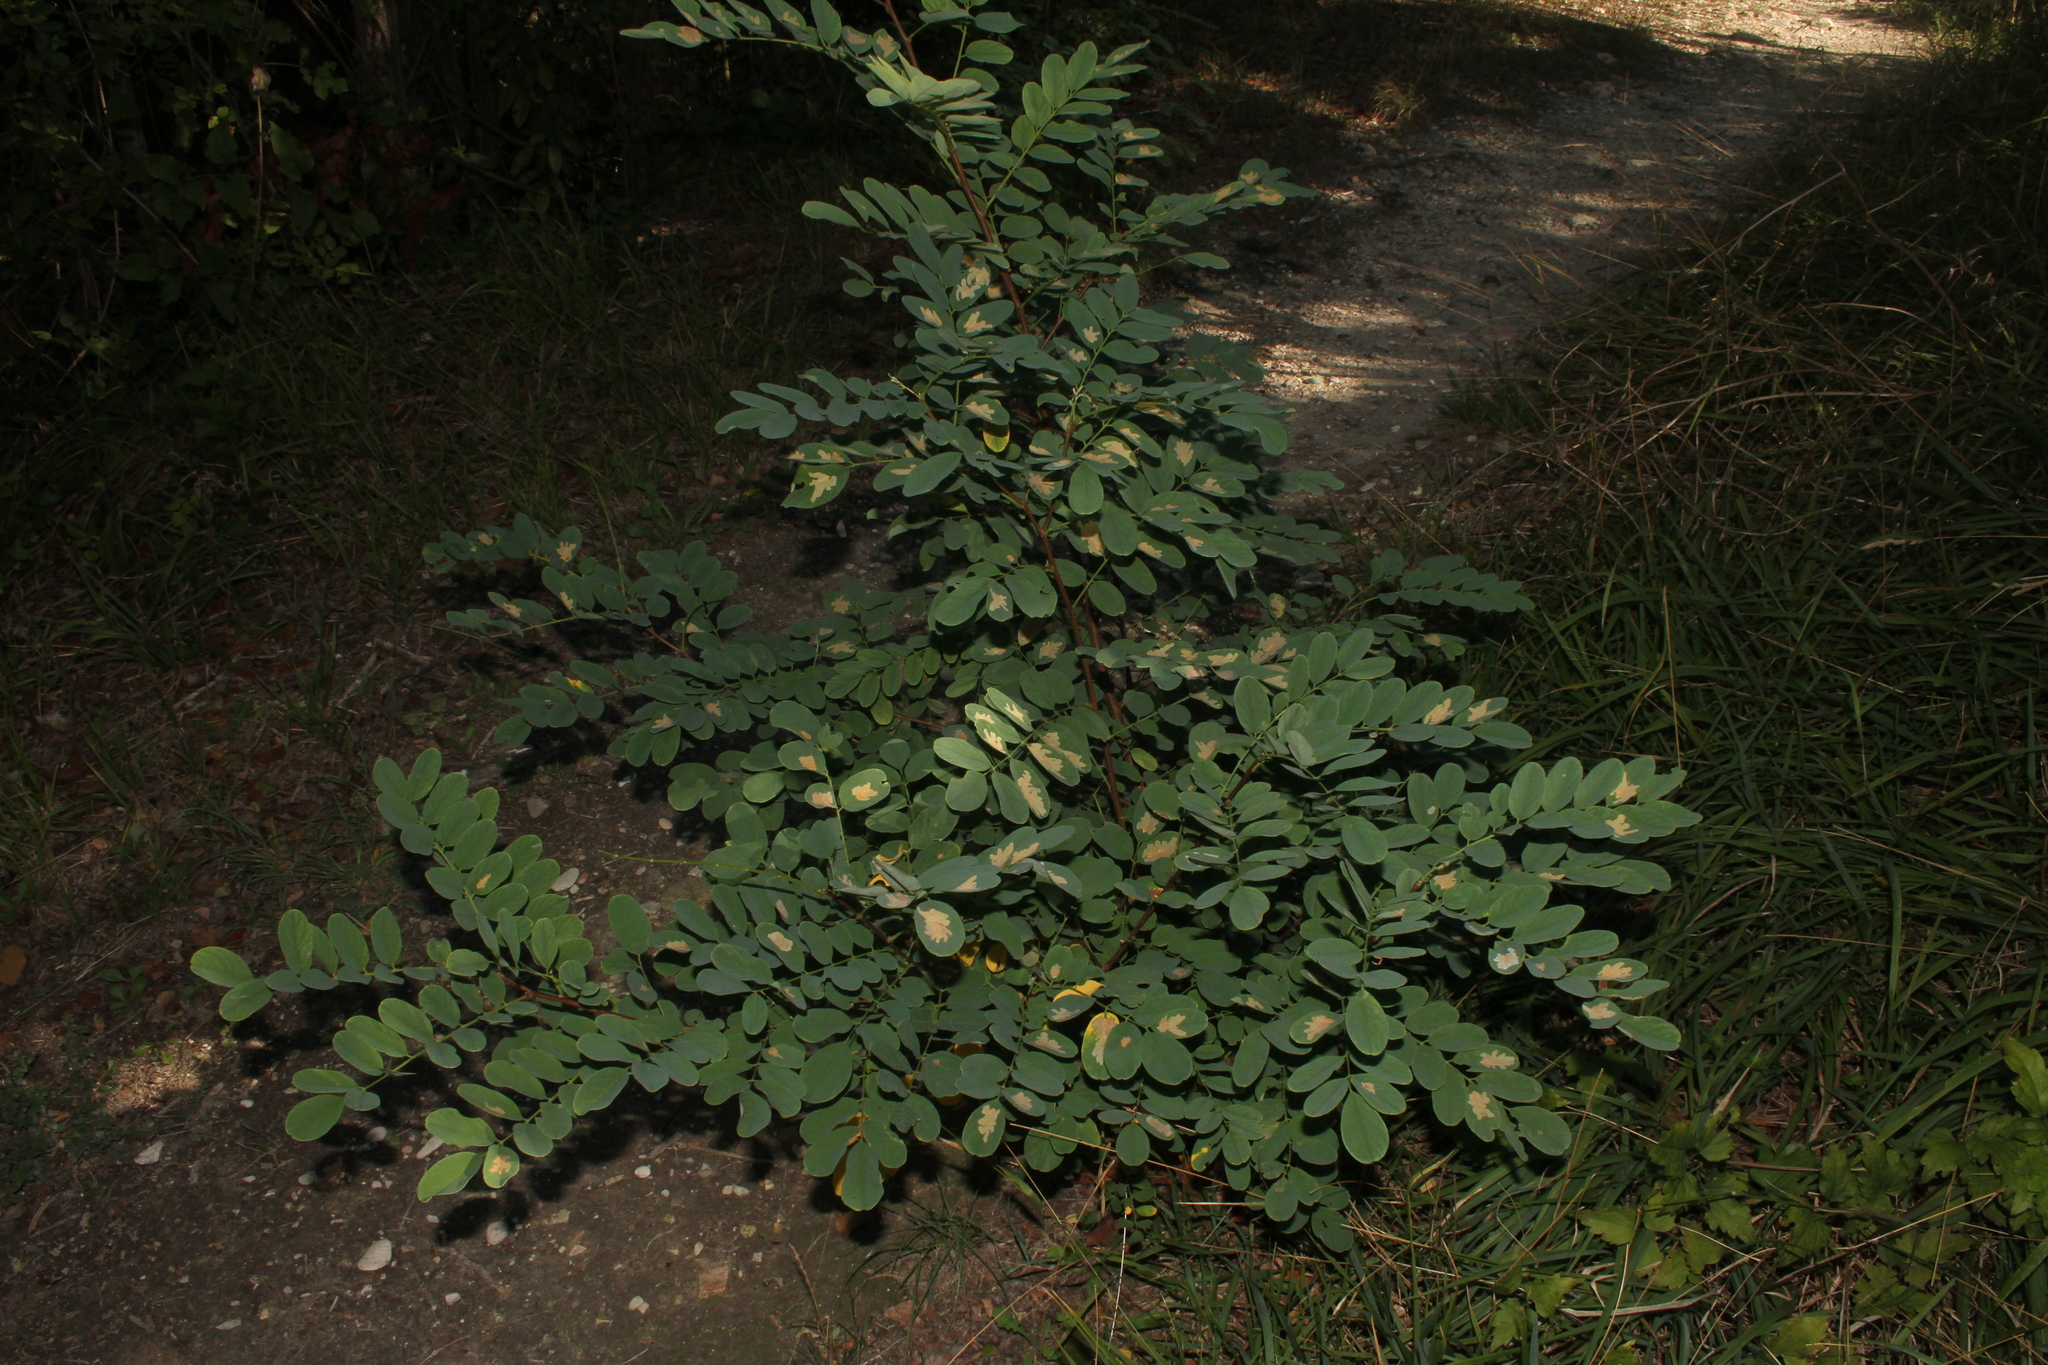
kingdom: Animalia
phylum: Arthropoda
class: Insecta
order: Lepidoptera
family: Gracillariidae
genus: Parectopa
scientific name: Parectopa robiniella
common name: Locust digitate leafminer
